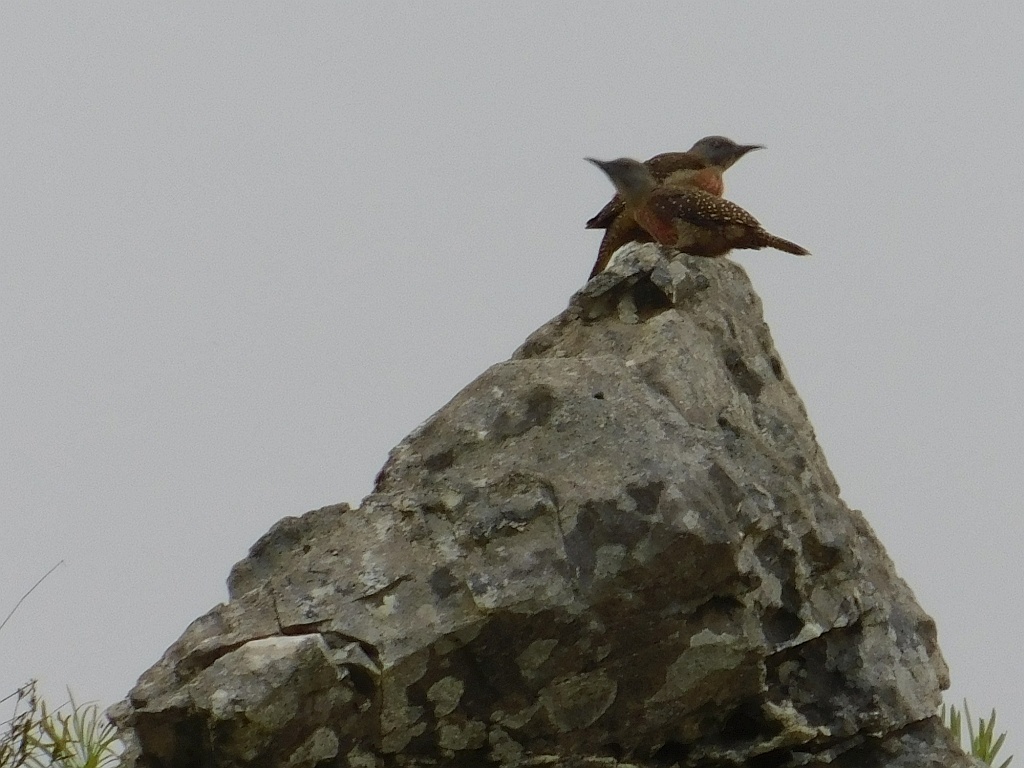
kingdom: Animalia
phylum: Chordata
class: Aves
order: Piciformes
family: Picidae
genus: Geocolaptes
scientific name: Geocolaptes olivaceus
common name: Ground woodpecker
